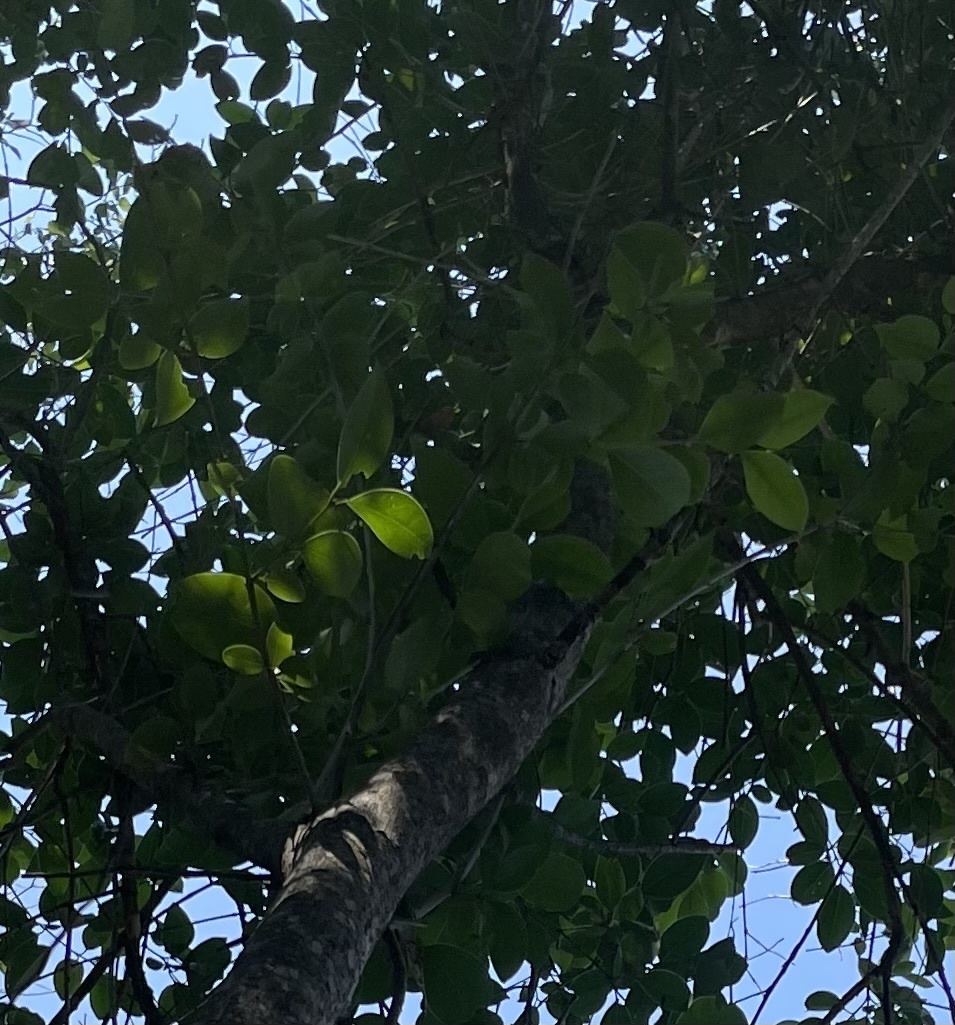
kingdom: Plantae
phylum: Tracheophyta
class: Magnoliopsida
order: Lamiales
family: Oleaceae
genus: Ligustrum
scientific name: Ligustrum lucidum
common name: Glossy privet
